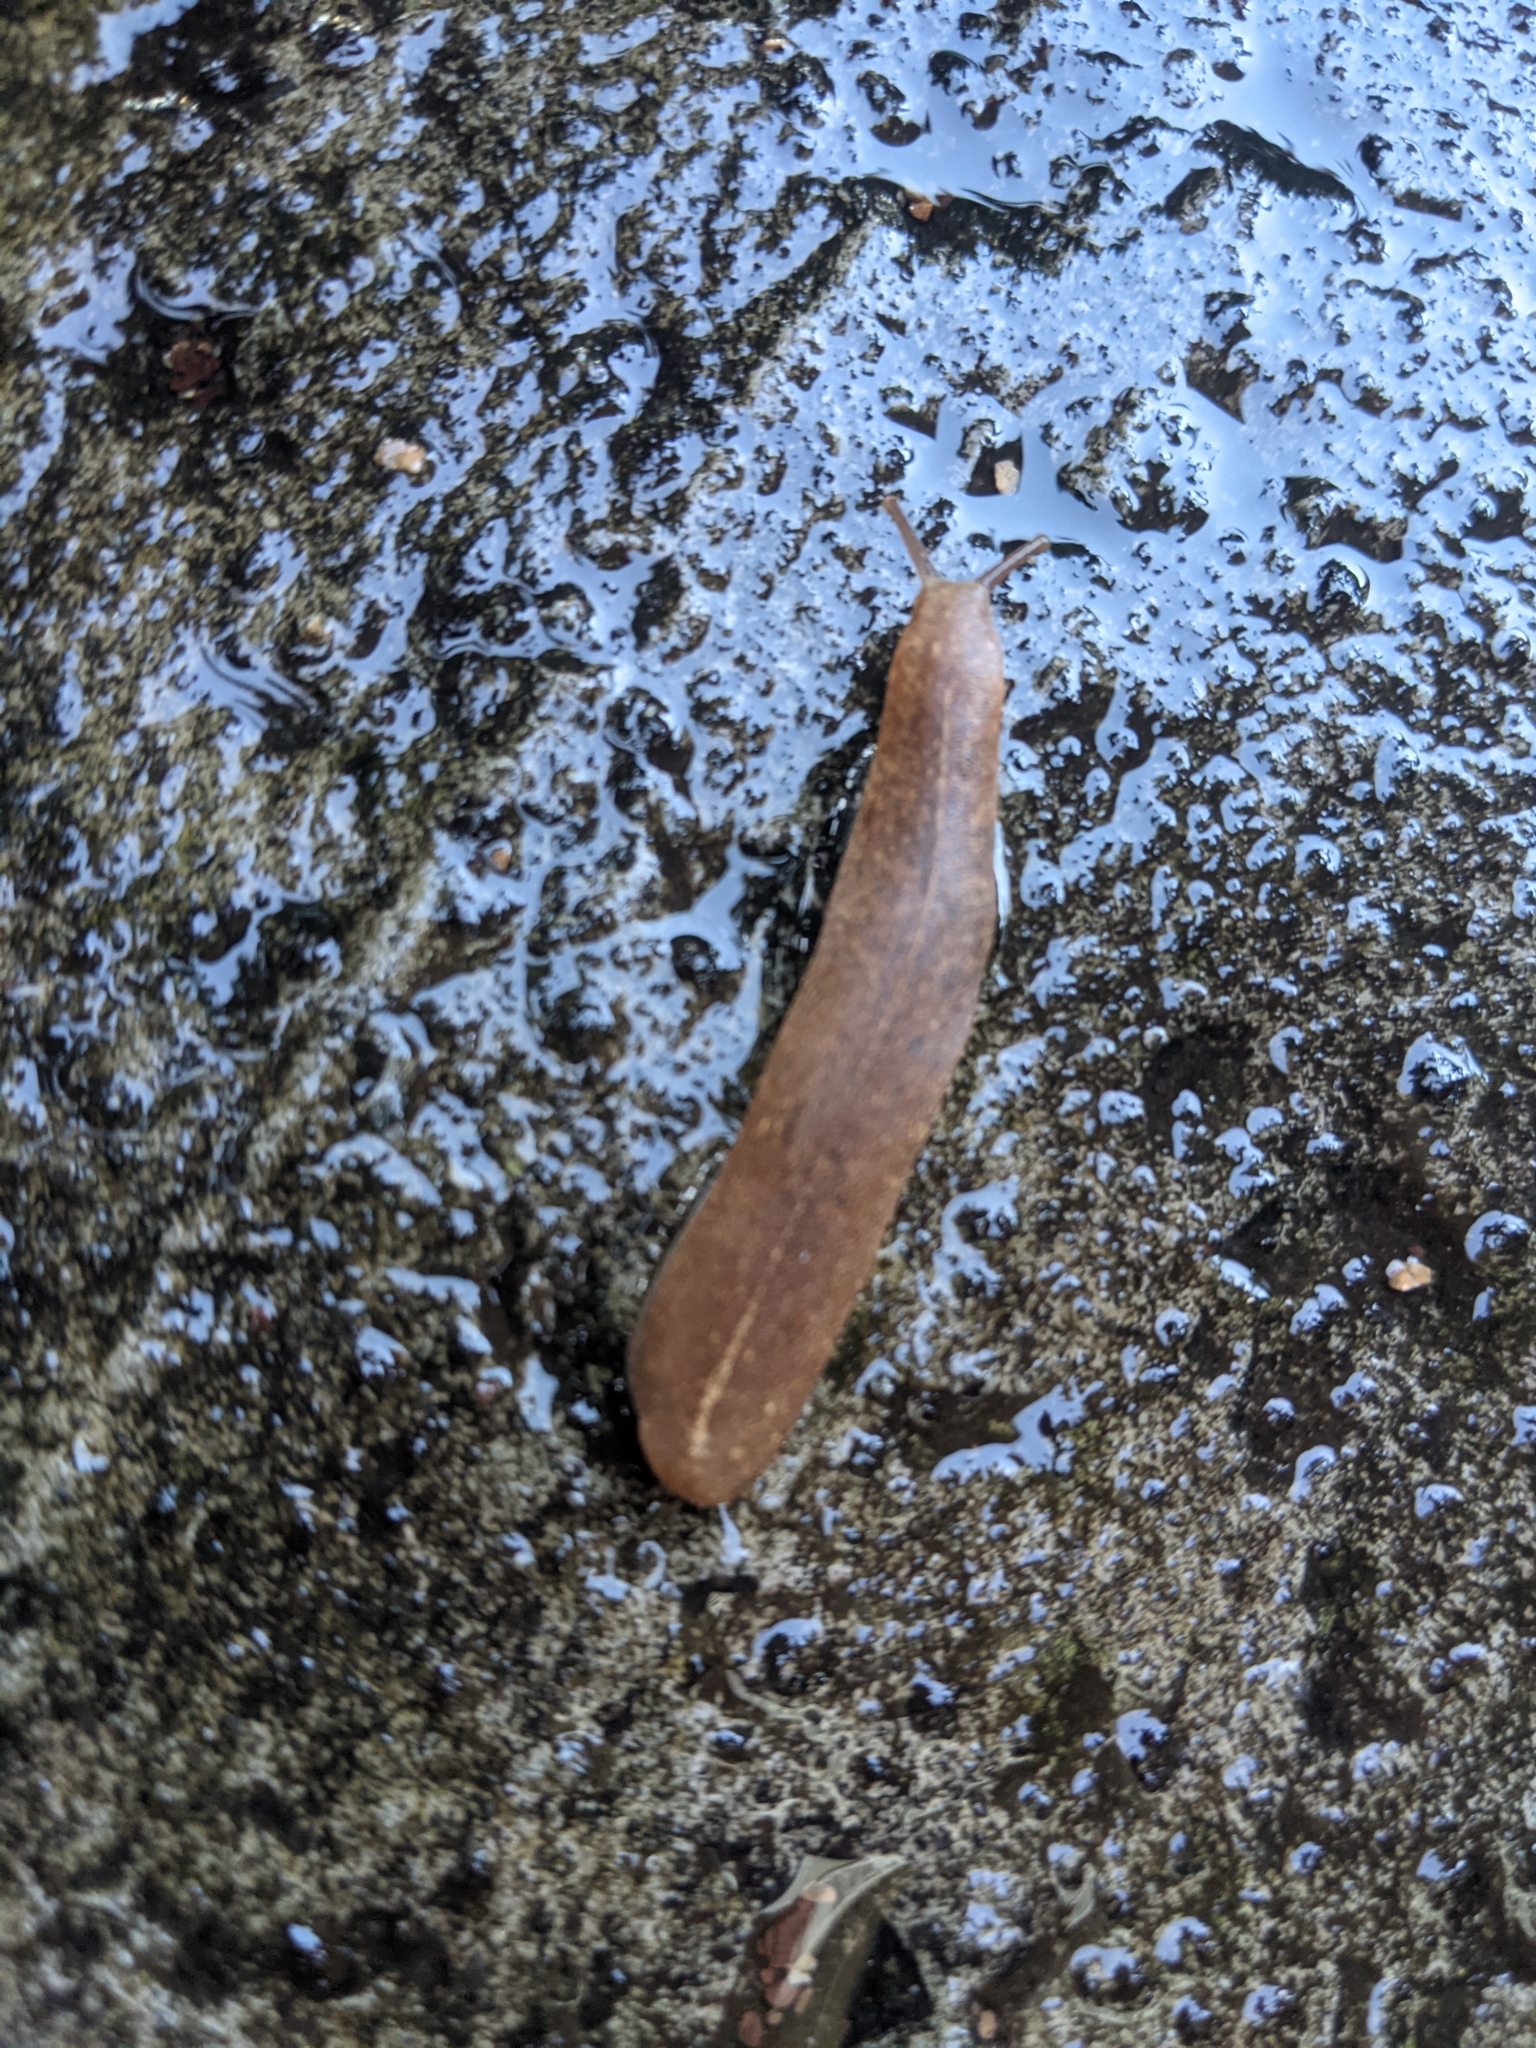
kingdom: Animalia
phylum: Mollusca
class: Gastropoda
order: Systellommatophora
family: Veronicellidae
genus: Veronicella
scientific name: Veronicella cubensis
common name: Two striped slug
